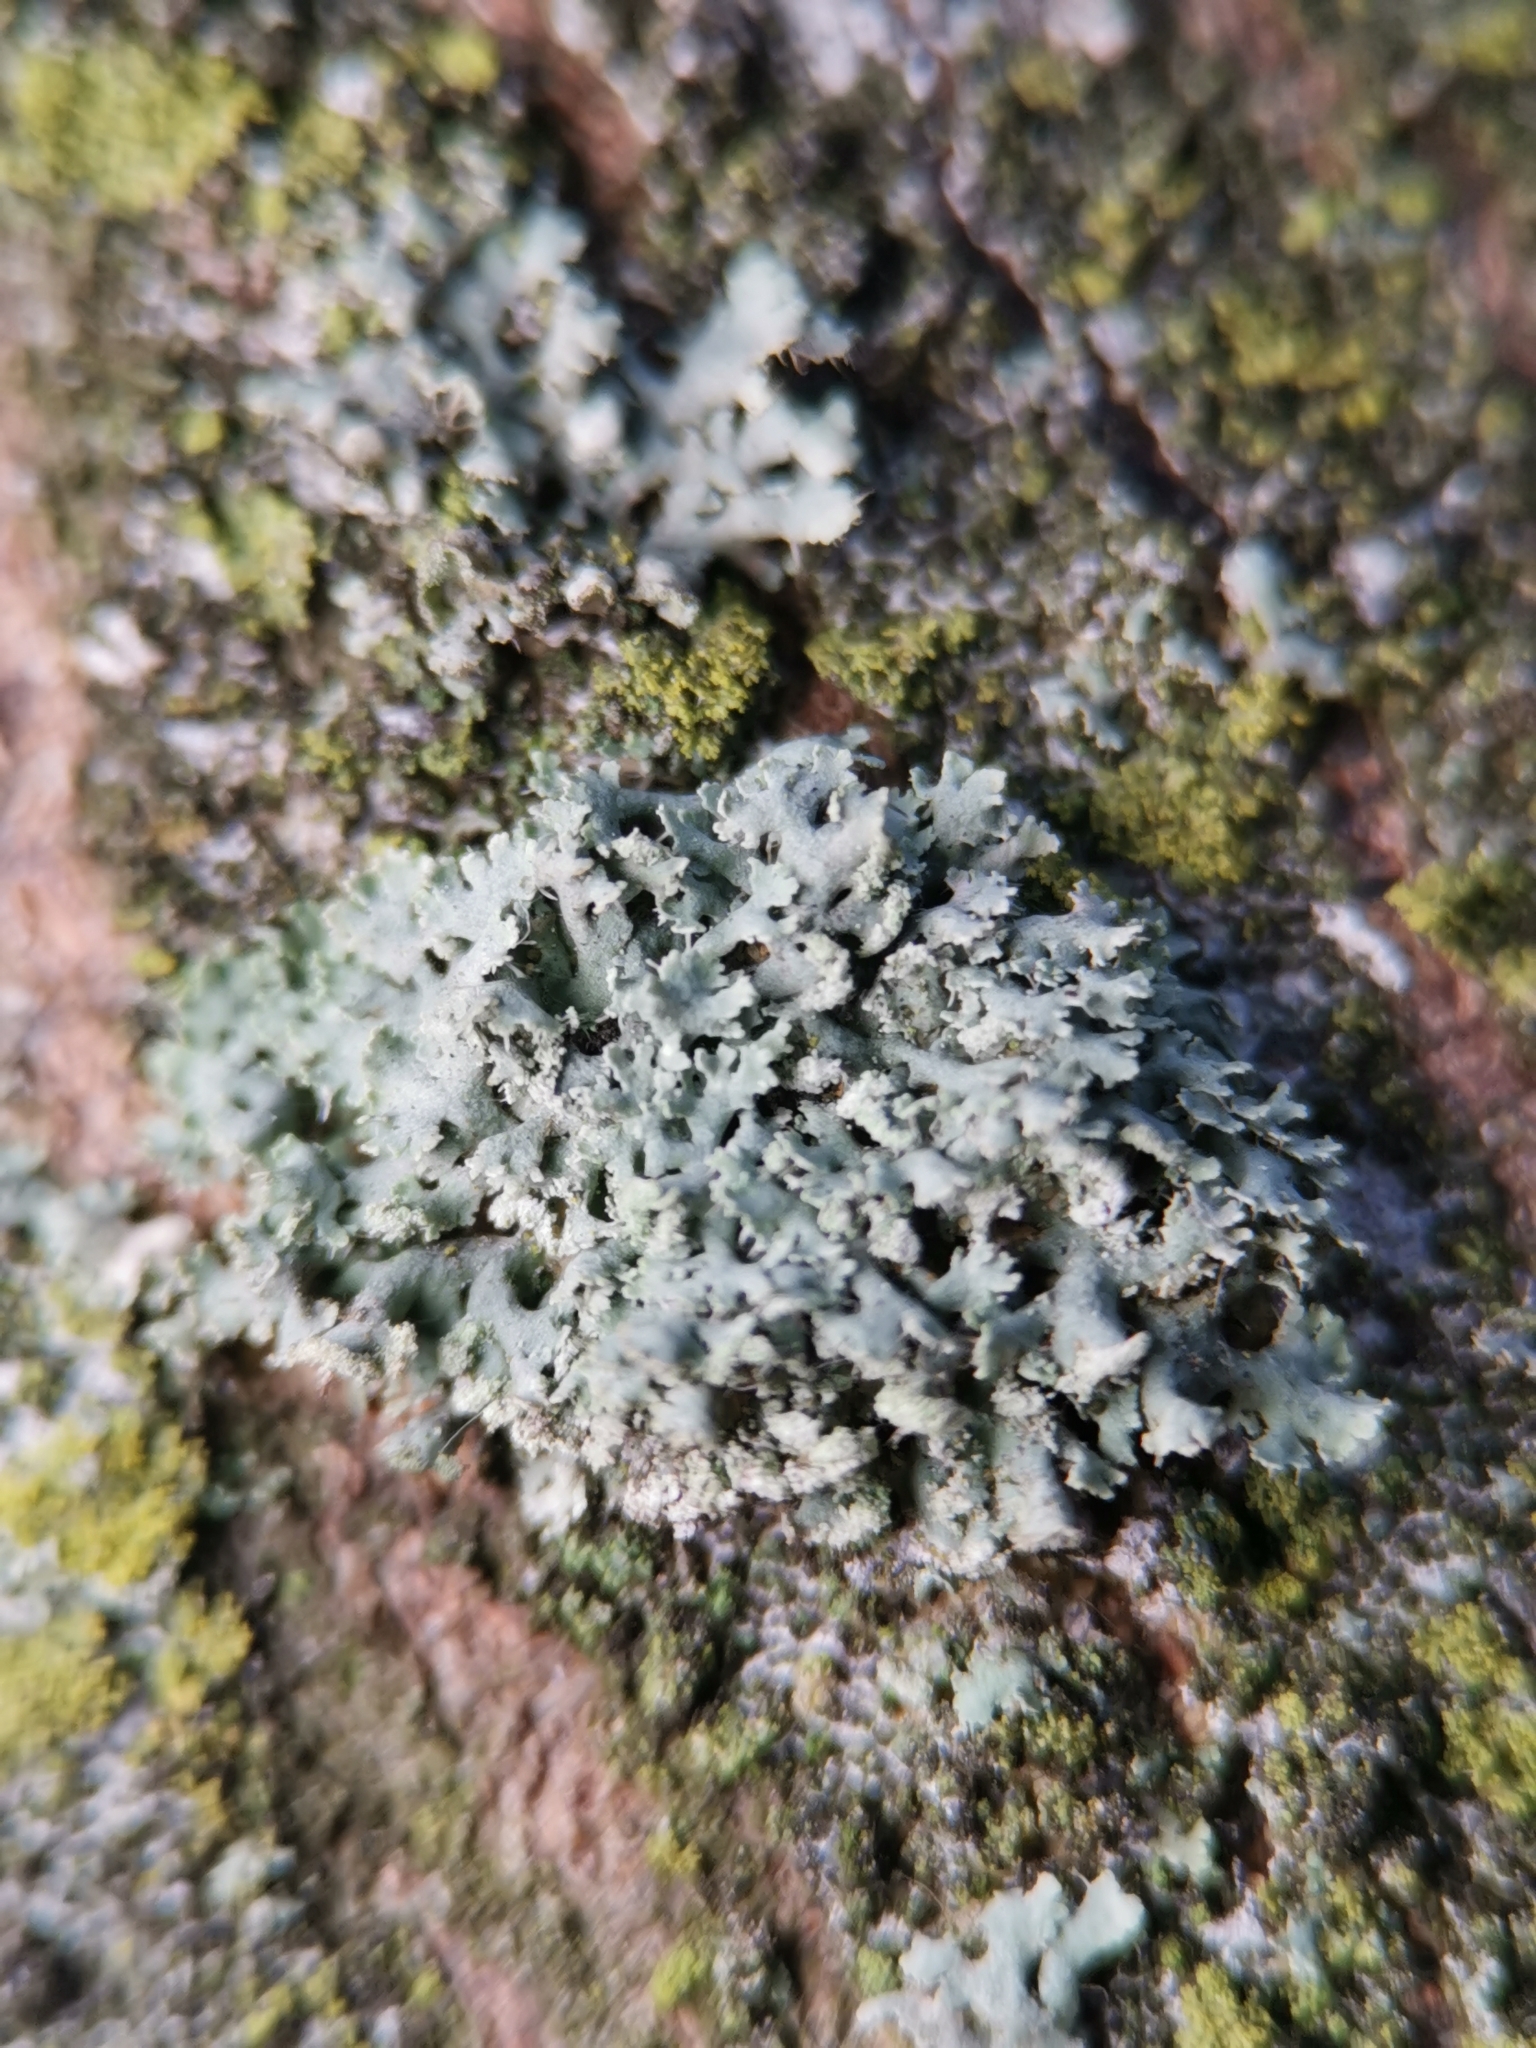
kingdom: Fungi
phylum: Ascomycota
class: Lecanoromycetes
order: Caliciales
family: Physciaceae
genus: Physcia
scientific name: Physcia tenella
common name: Fringed rosette lichen
